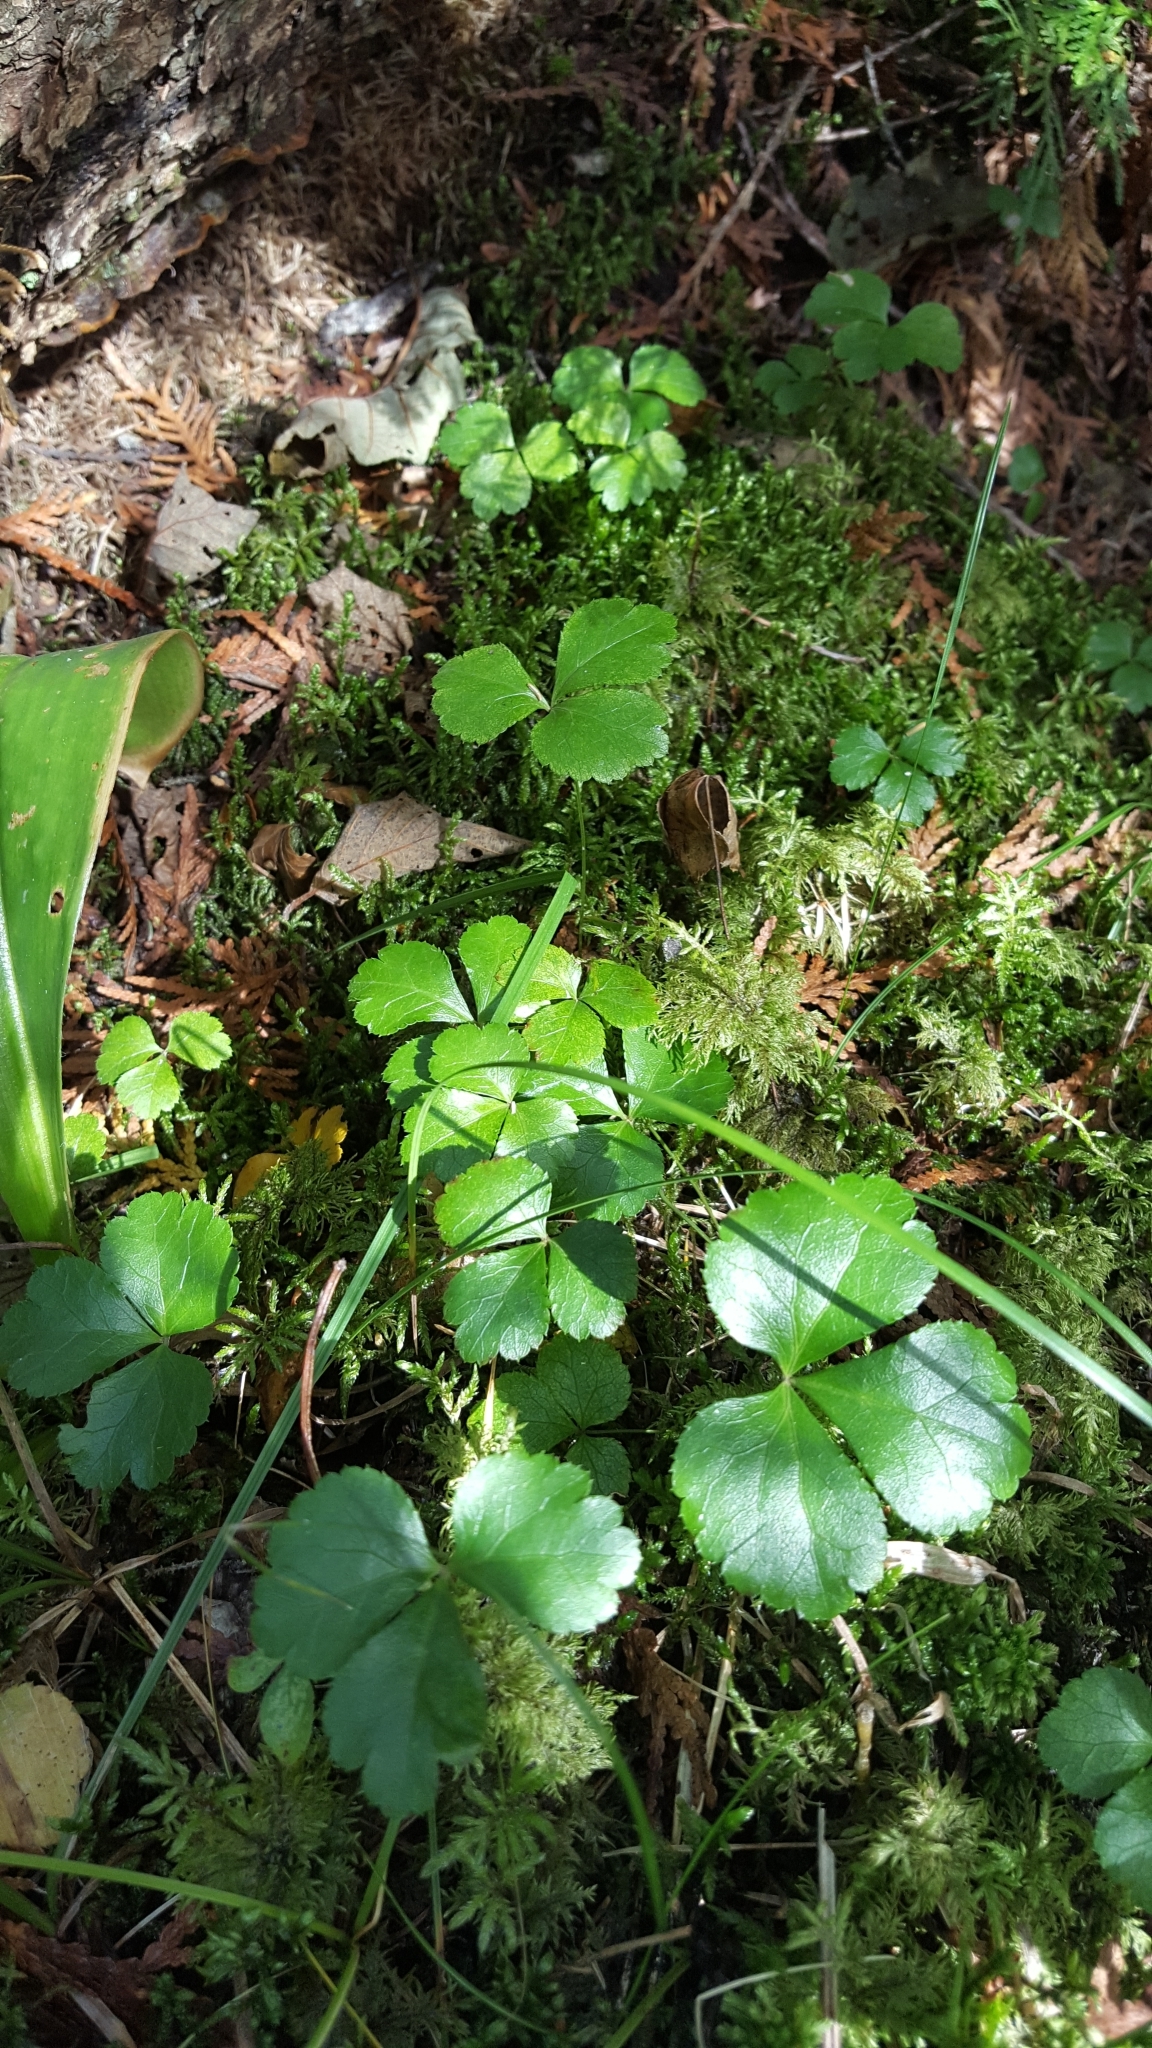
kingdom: Plantae
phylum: Tracheophyta
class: Magnoliopsida
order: Ranunculales
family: Ranunculaceae
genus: Coptis
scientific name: Coptis trifolia
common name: Canker-root
